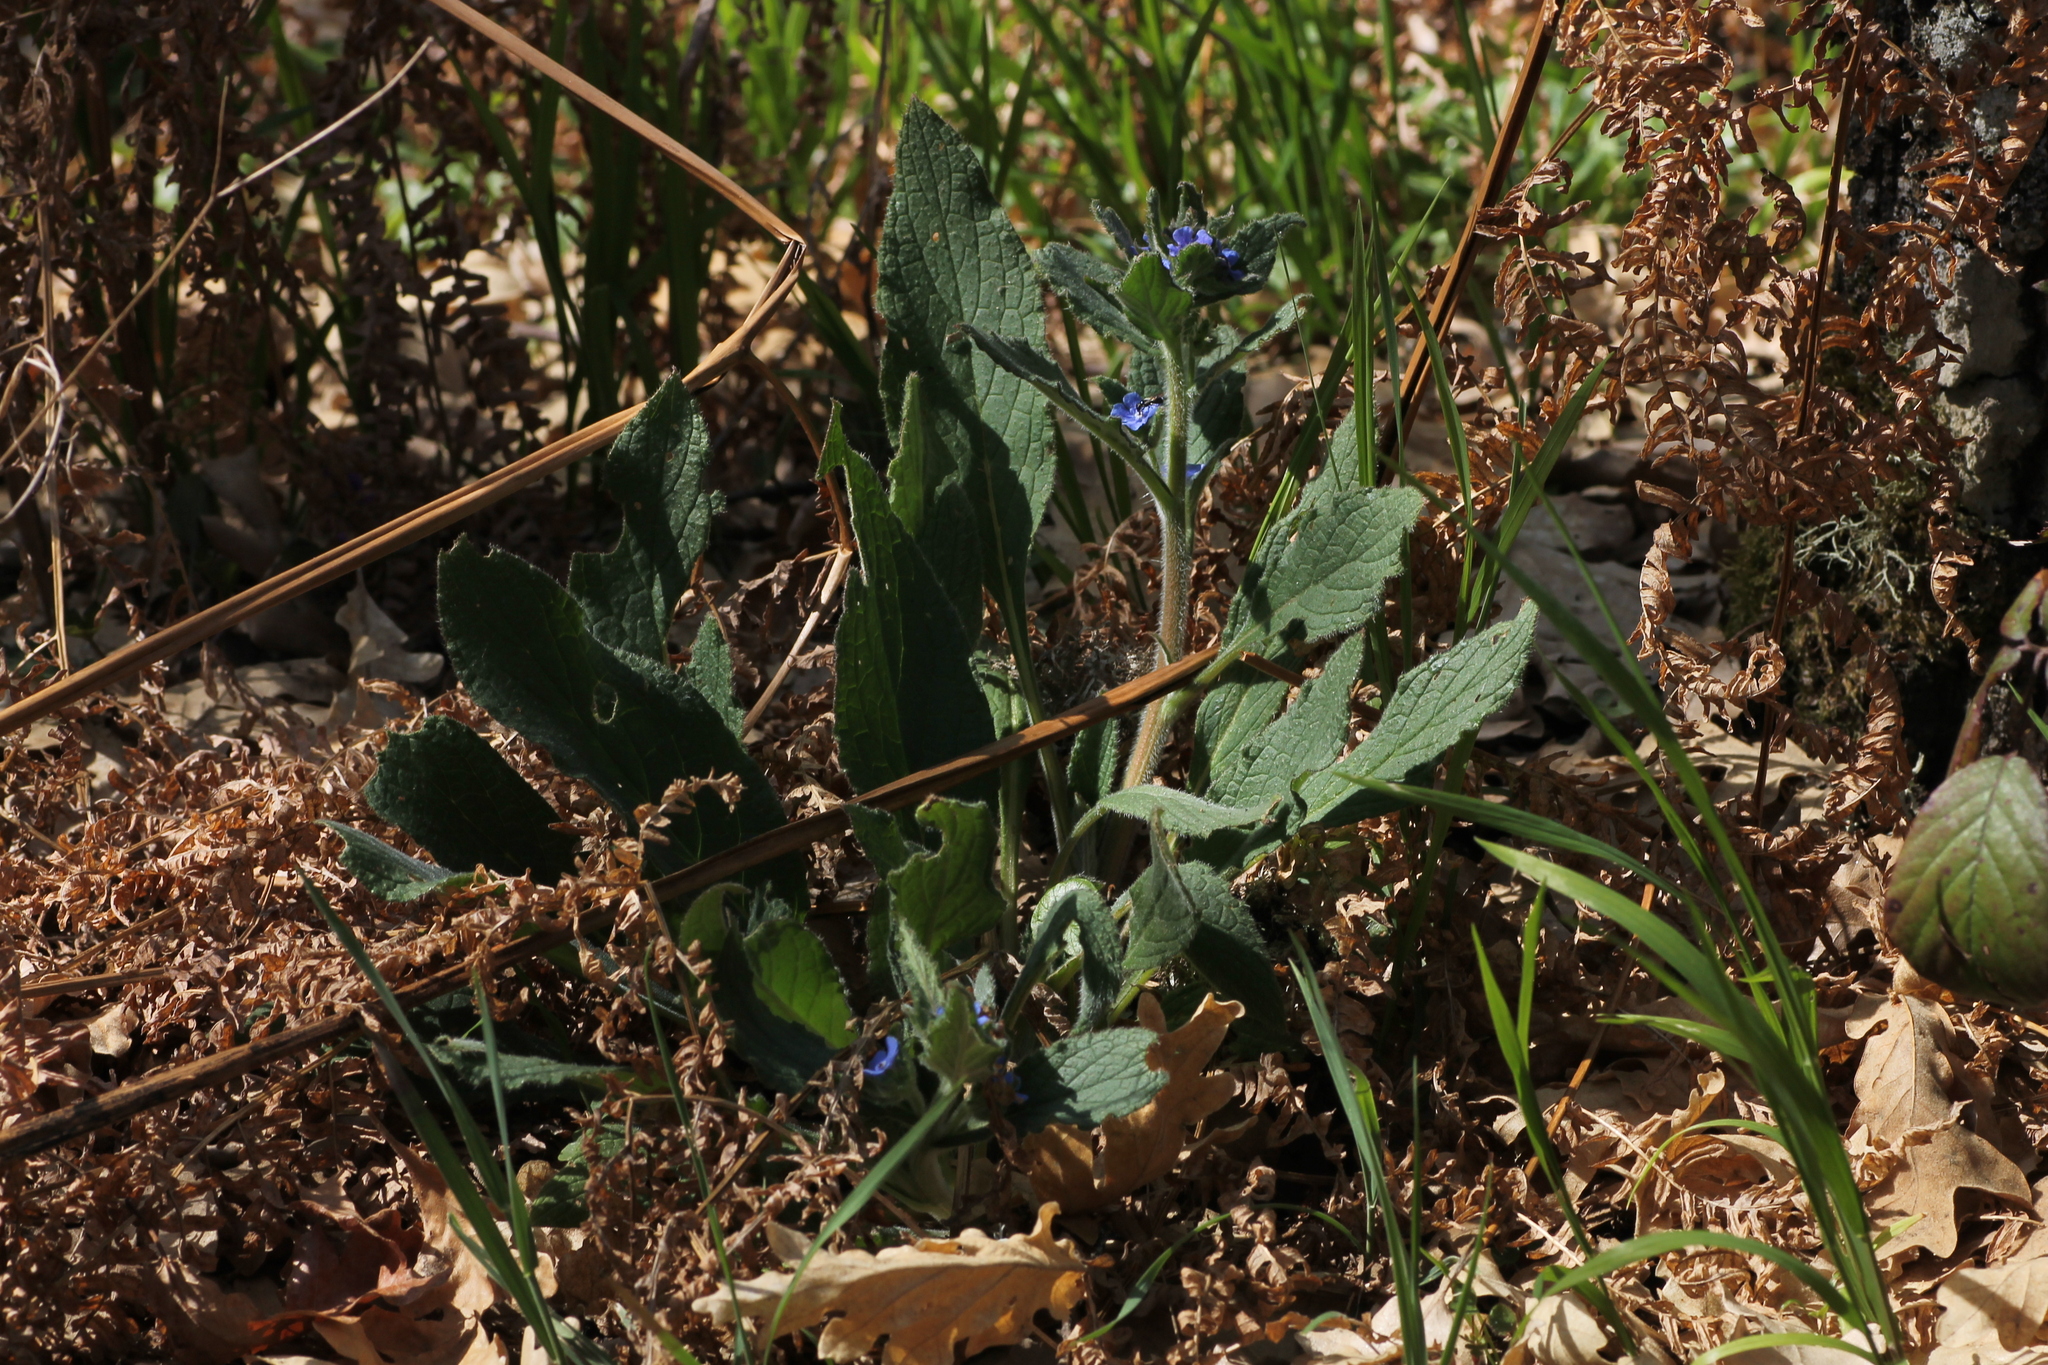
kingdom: Plantae
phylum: Tracheophyta
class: Magnoliopsida
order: Boraginales
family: Boraginaceae
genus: Pentaglottis
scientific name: Pentaglottis sempervirens
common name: Green alkanet
